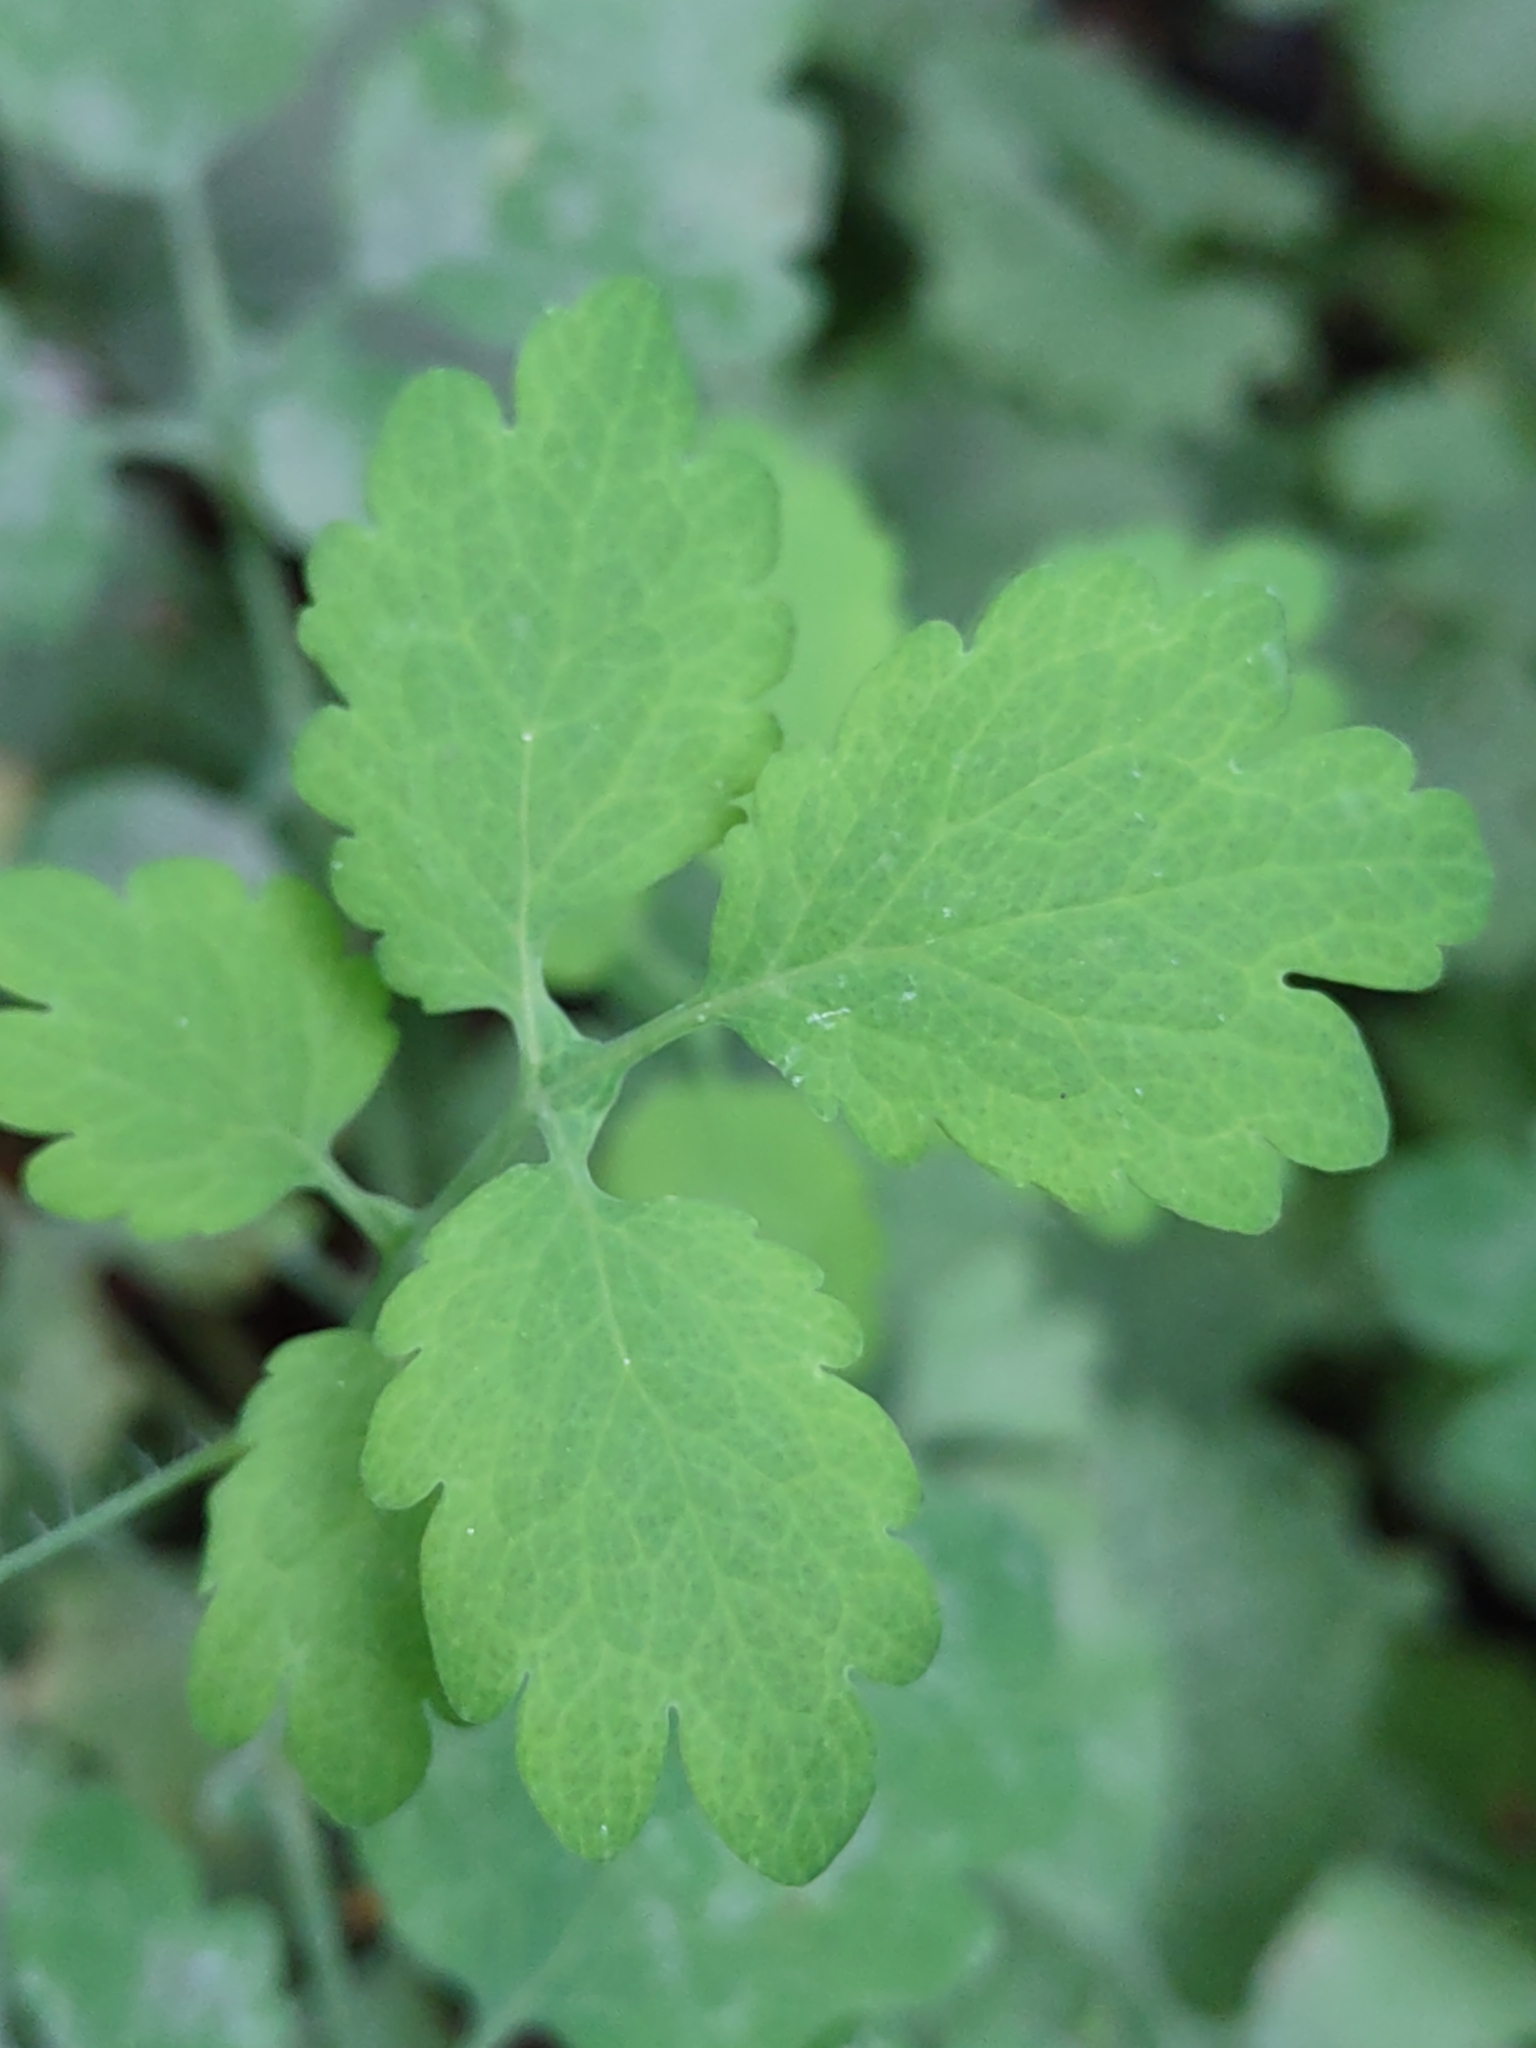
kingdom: Plantae
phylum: Tracheophyta
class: Magnoliopsida
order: Ranunculales
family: Papaveraceae
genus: Chelidonium
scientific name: Chelidonium majus
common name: Greater celandine
